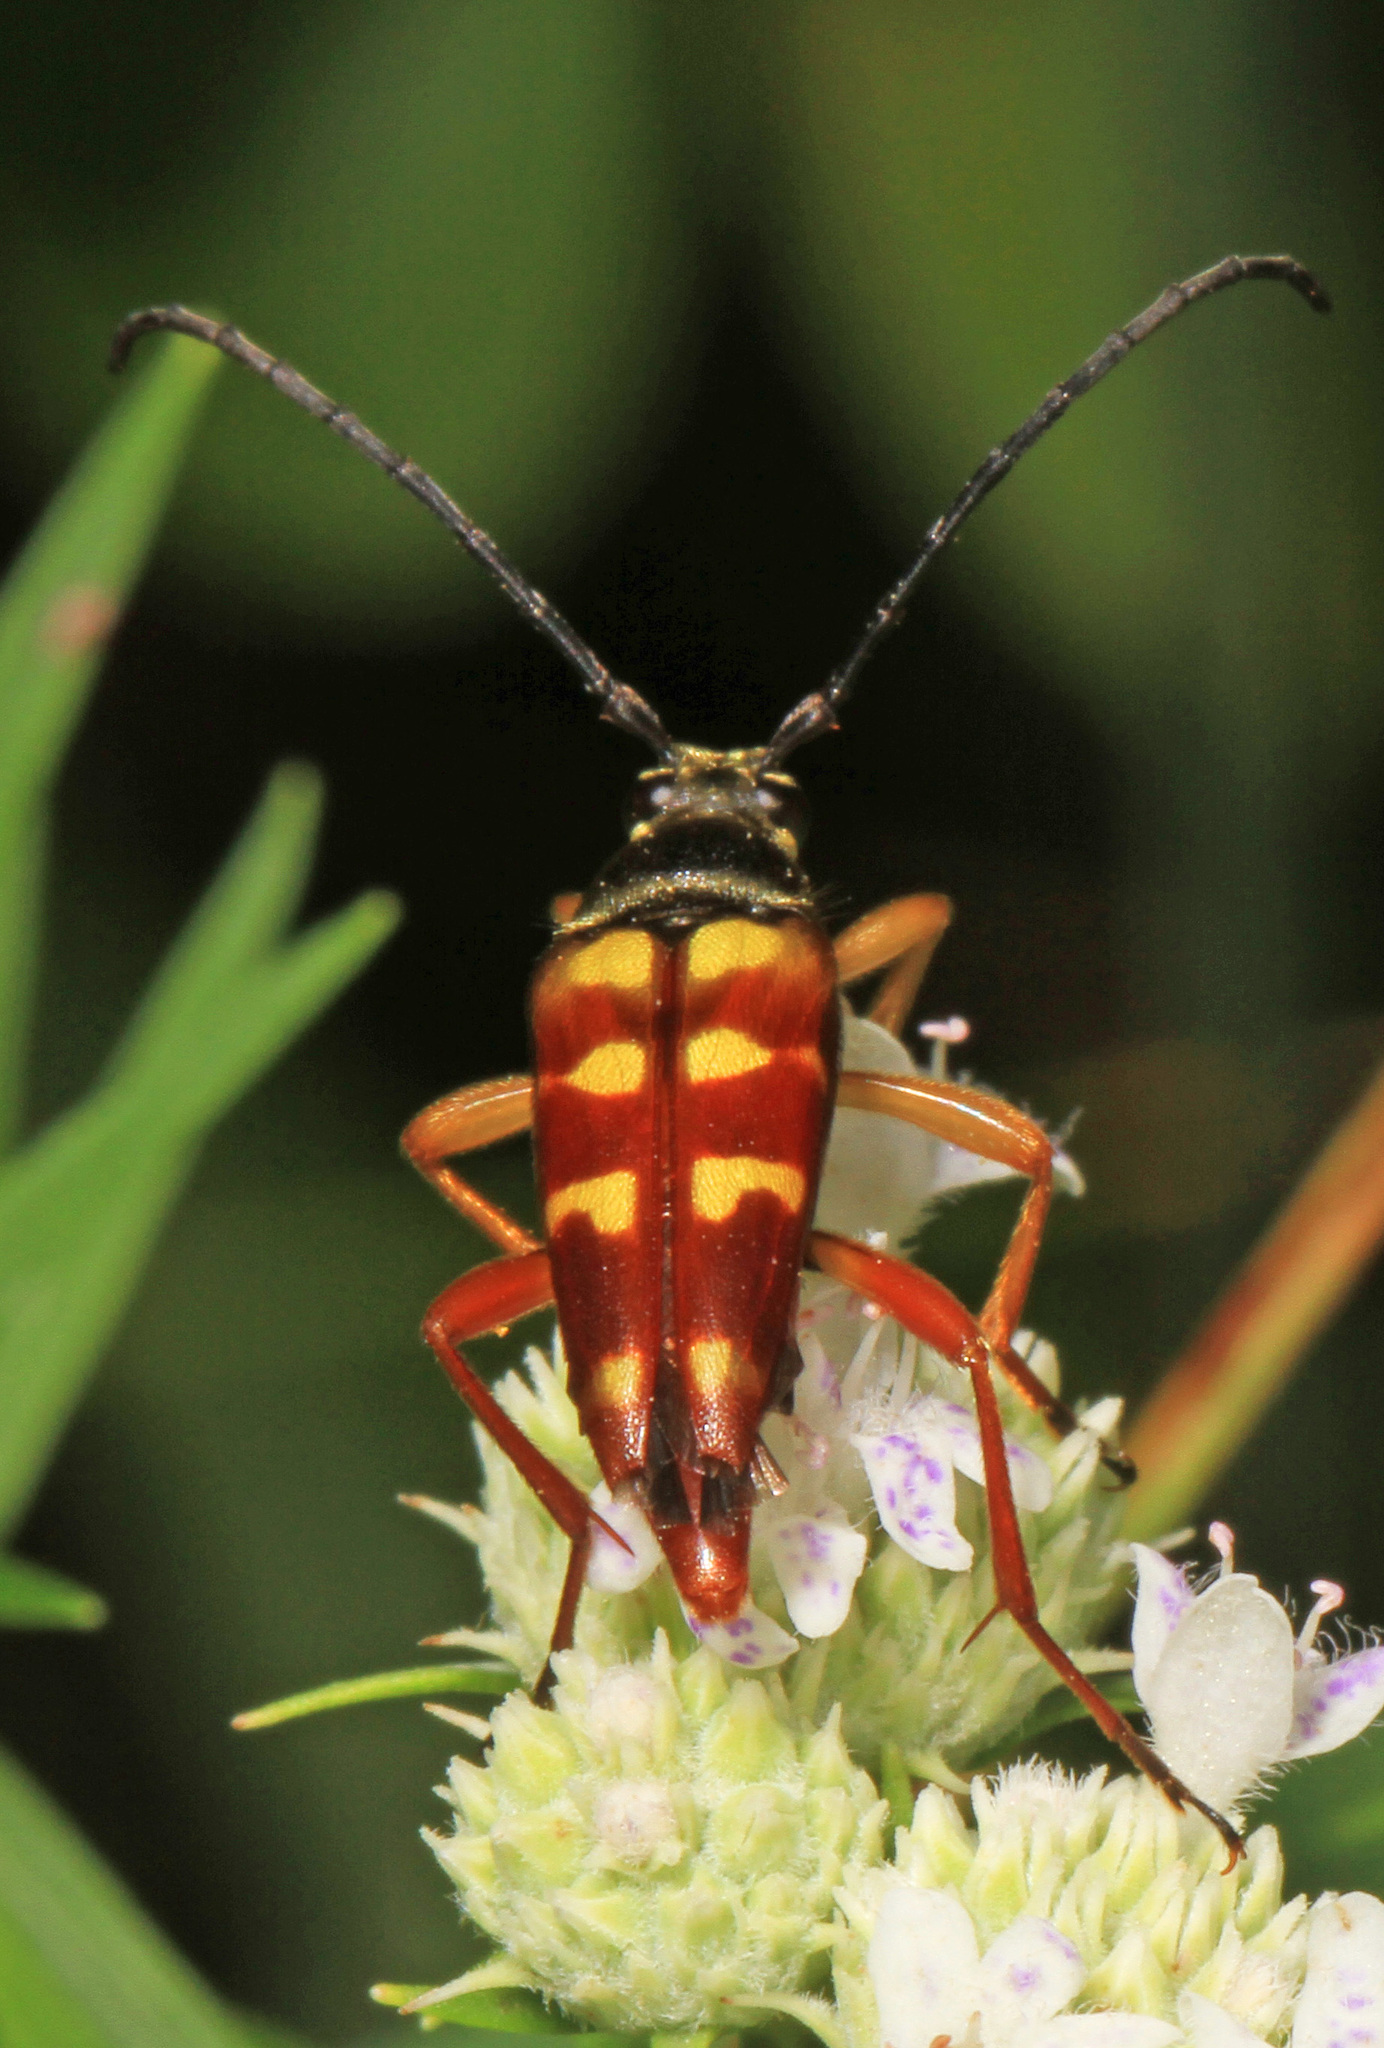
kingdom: Animalia
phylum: Arthropoda
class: Insecta
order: Coleoptera
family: Cerambycidae
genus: Typocerus
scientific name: Typocerus velutinus
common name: Banded longhorn beetle
